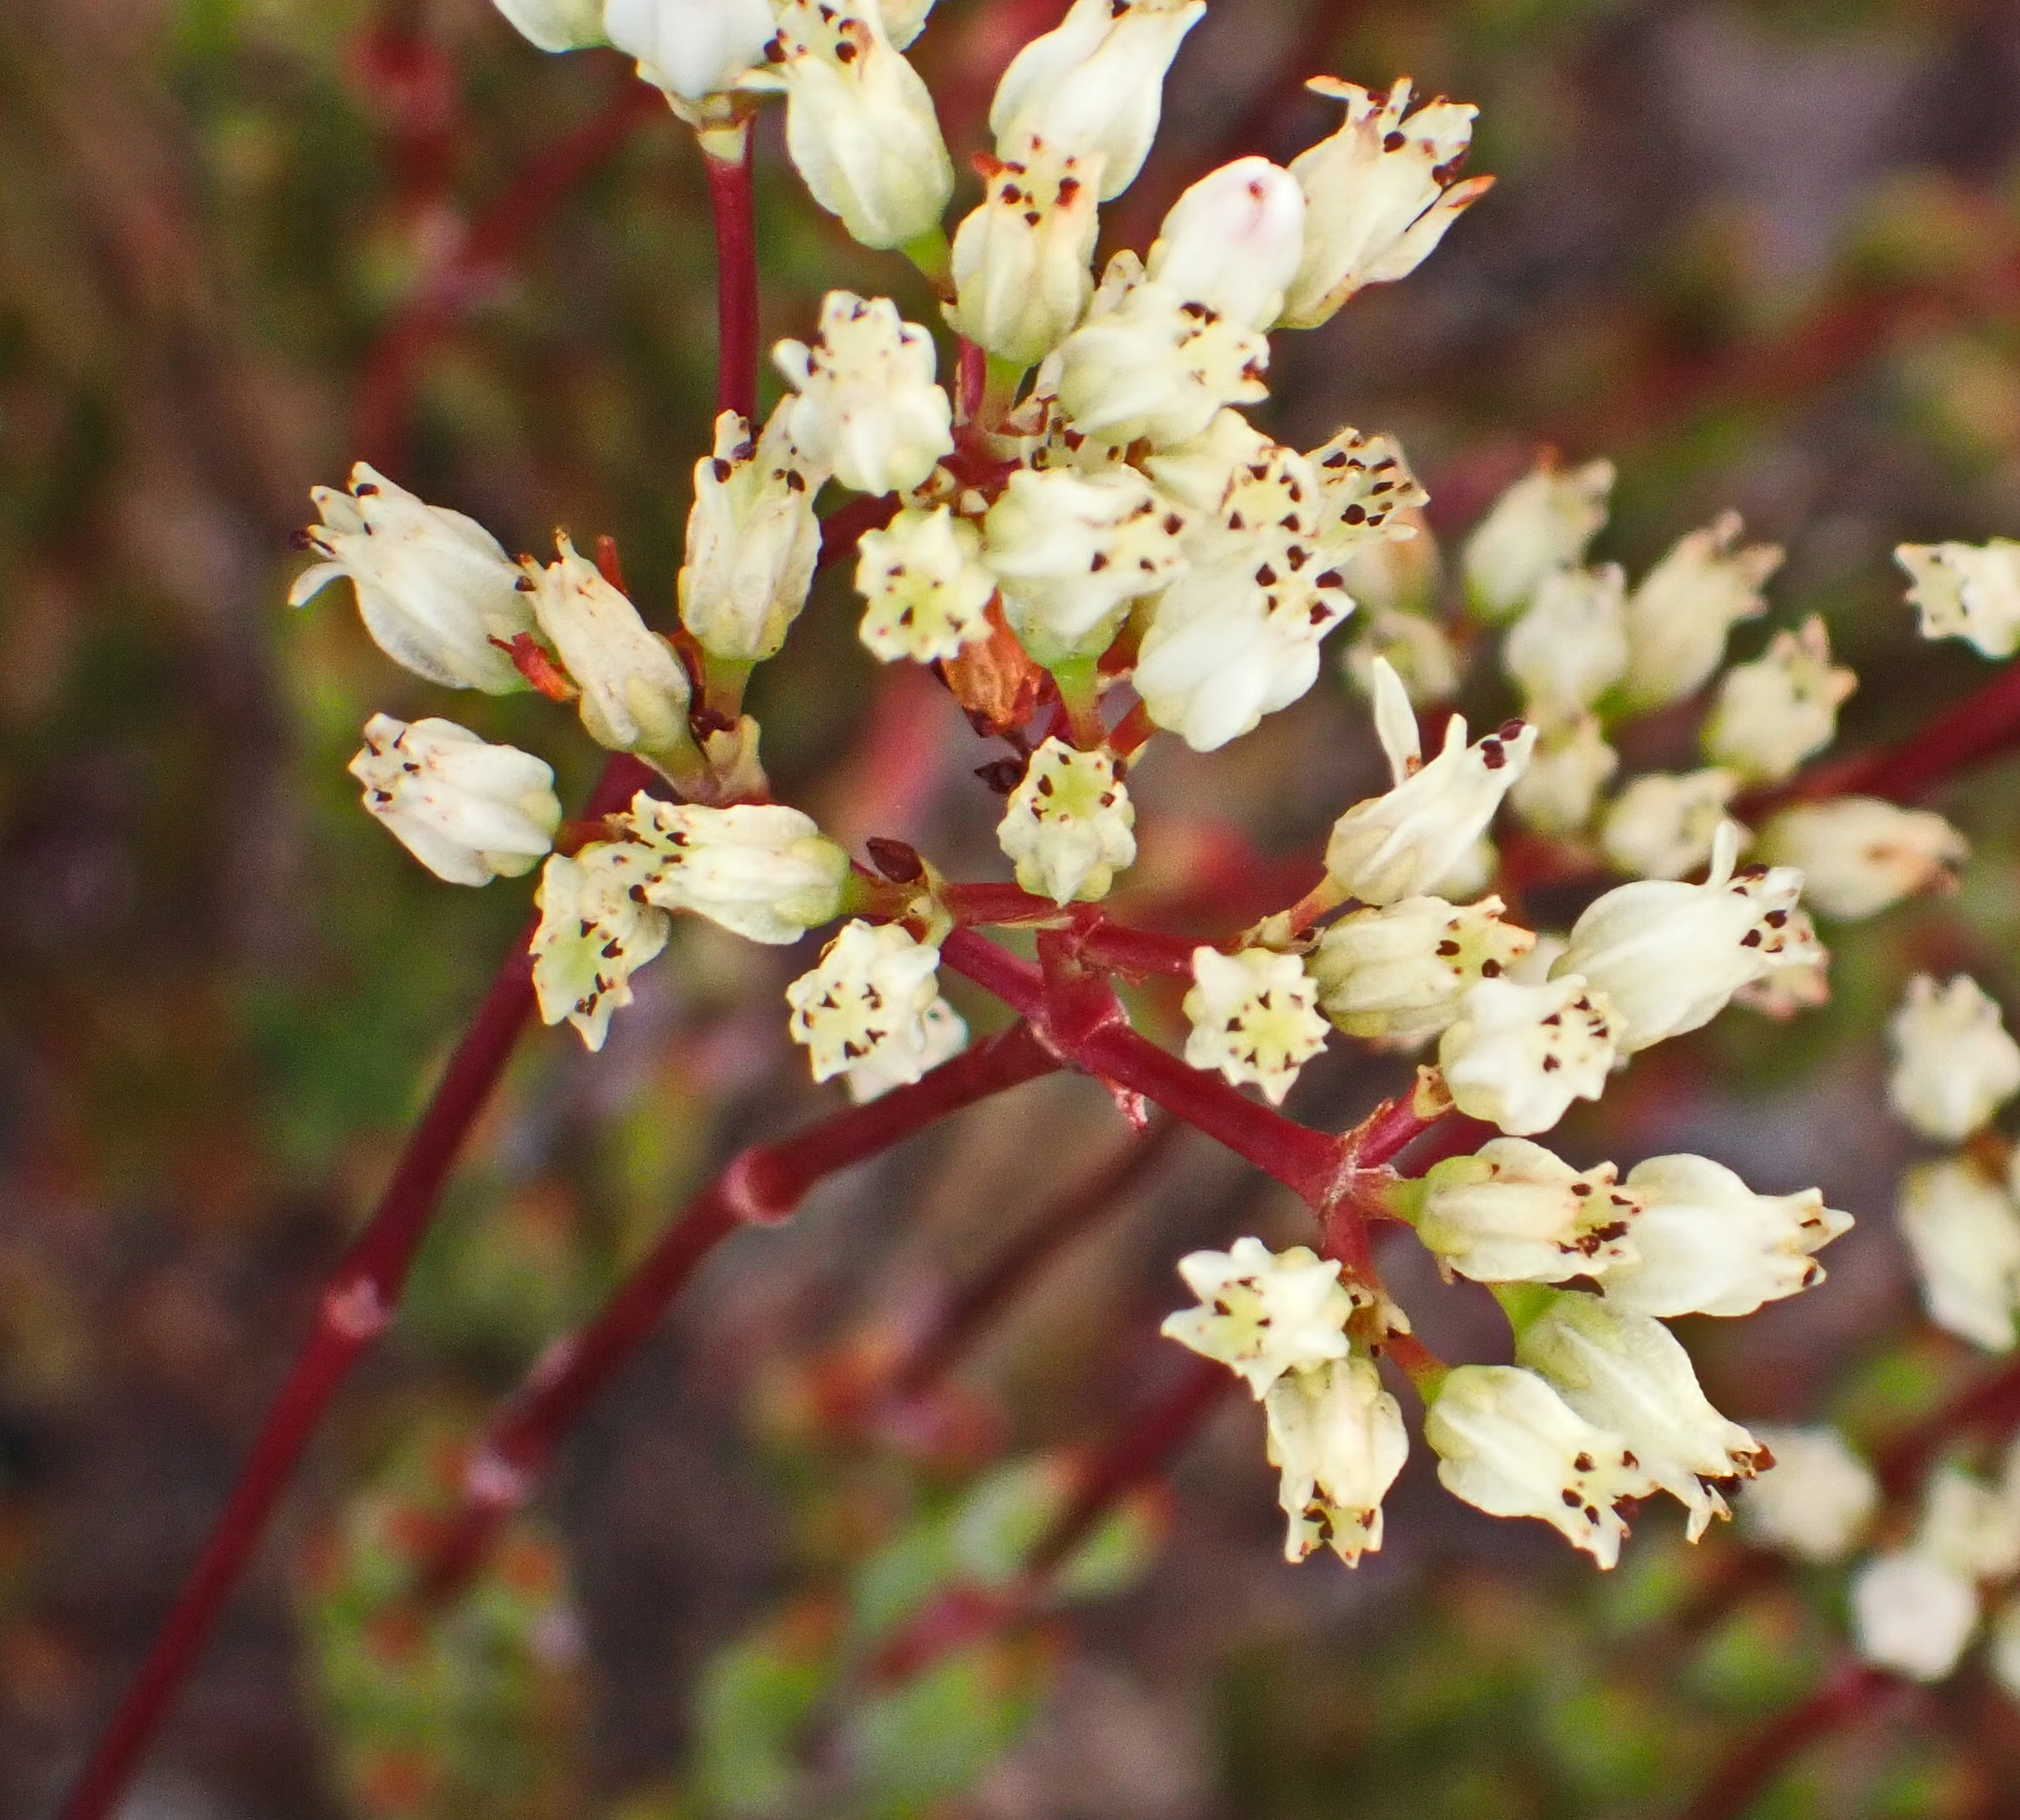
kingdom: Plantae
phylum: Tracheophyta
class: Magnoliopsida
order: Saxifragales
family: Crassulaceae
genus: Crassula
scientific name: Crassula biplanata
